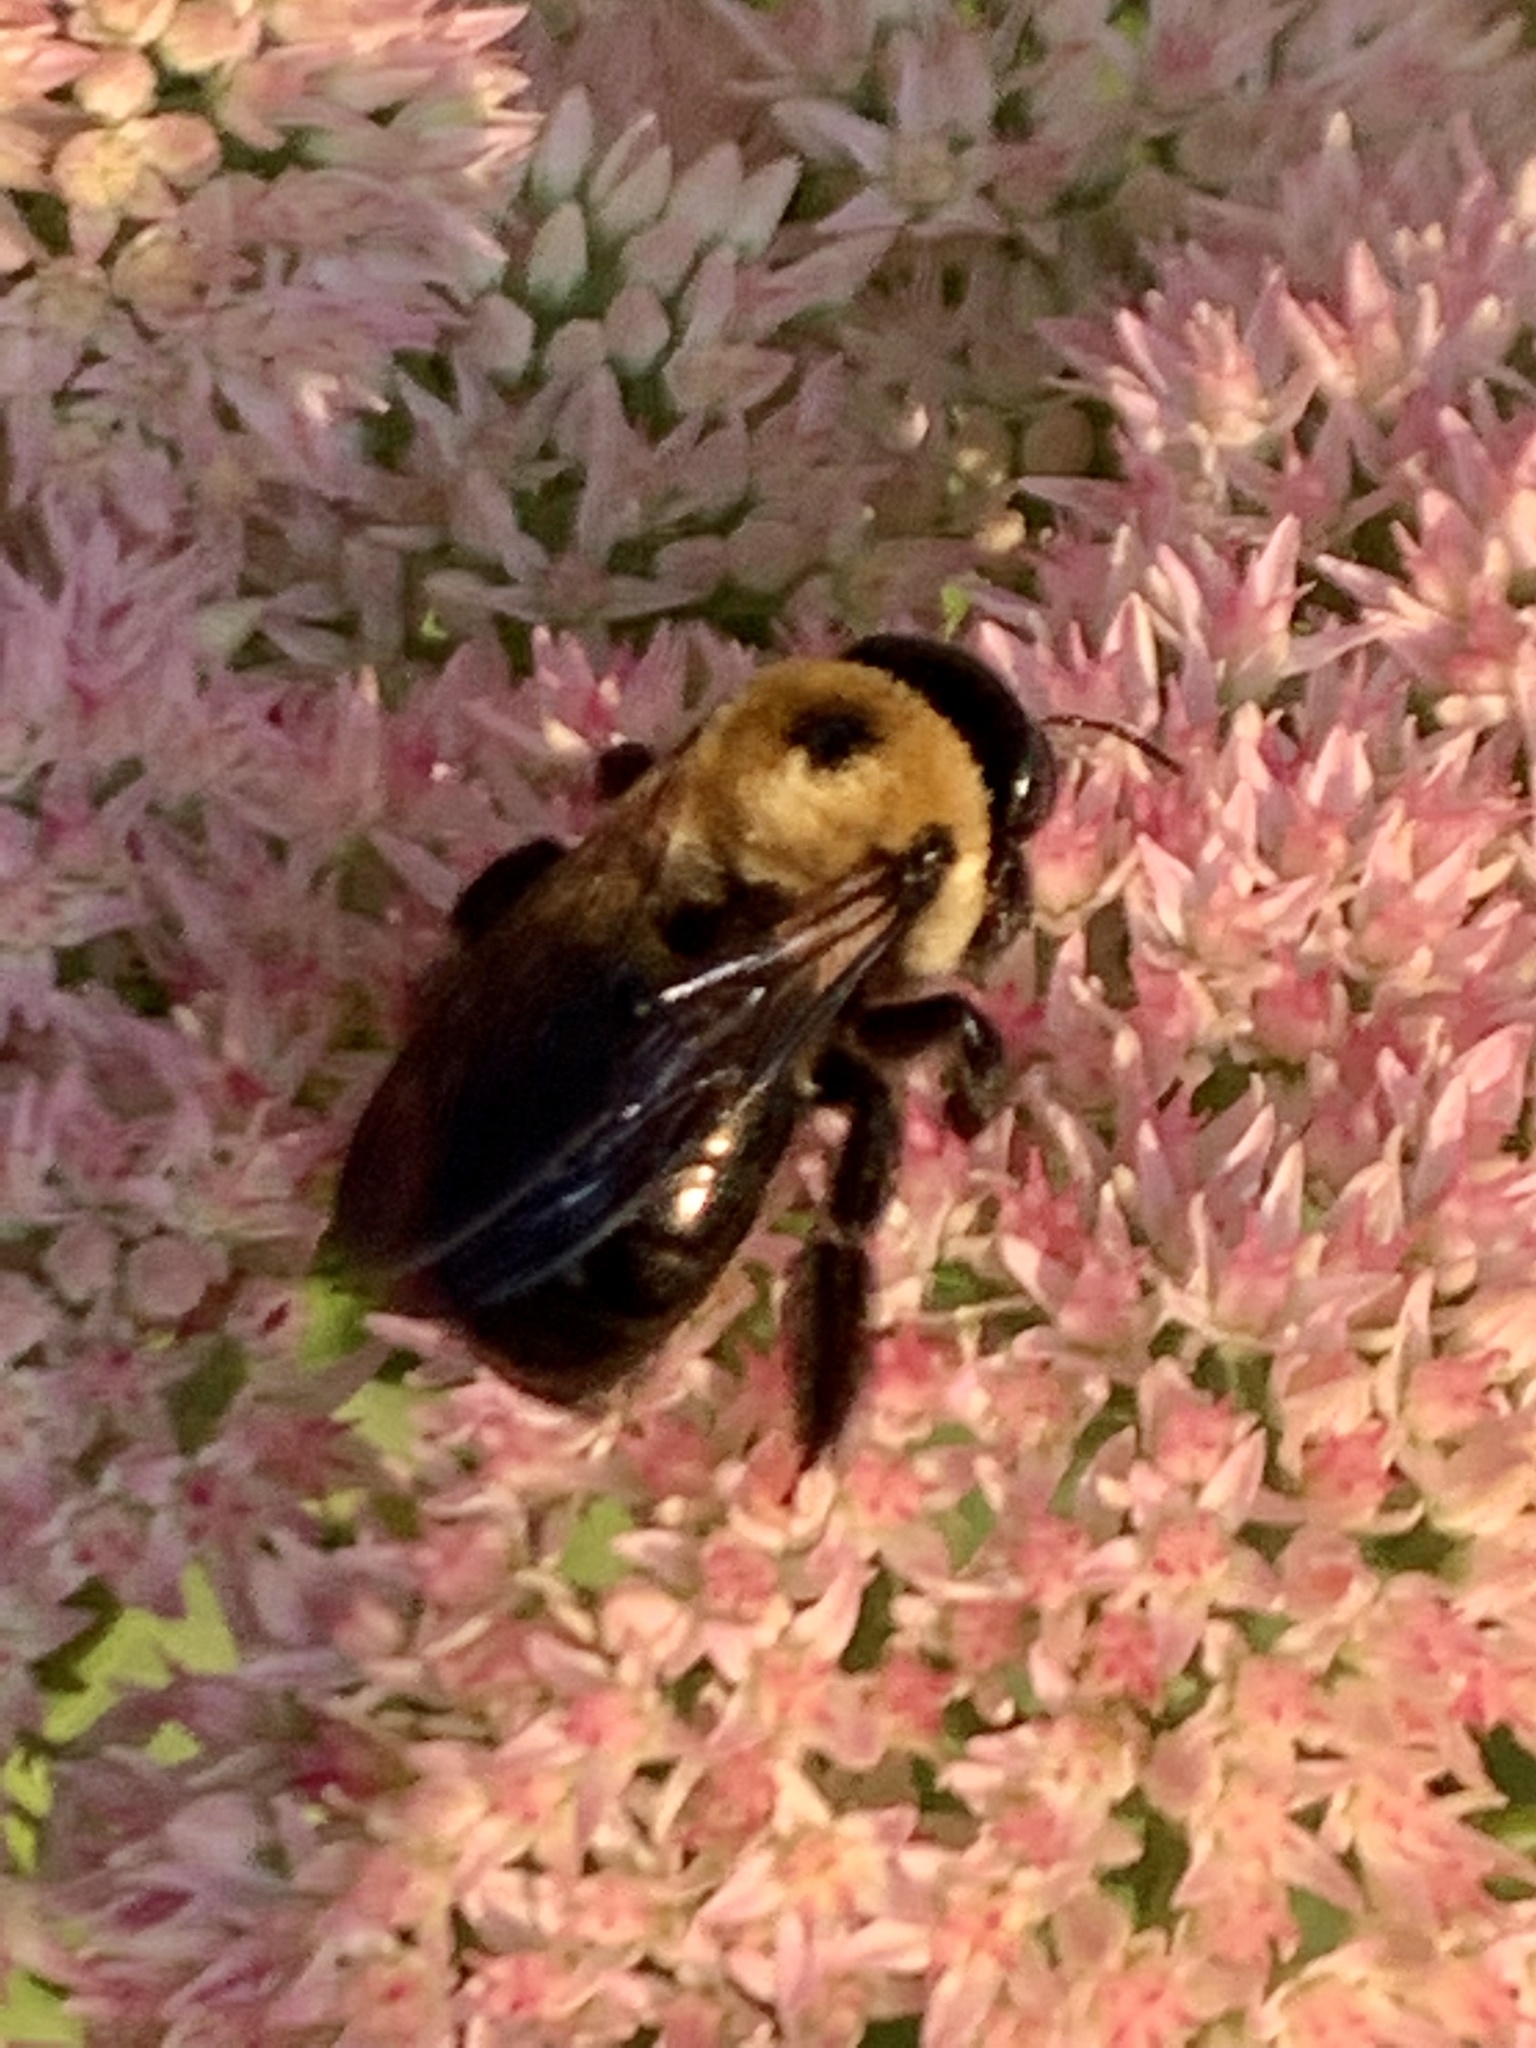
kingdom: Animalia
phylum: Arthropoda
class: Insecta
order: Hymenoptera
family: Apidae
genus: Xylocopa
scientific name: Xylocopa virginica
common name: Carpenter bee
